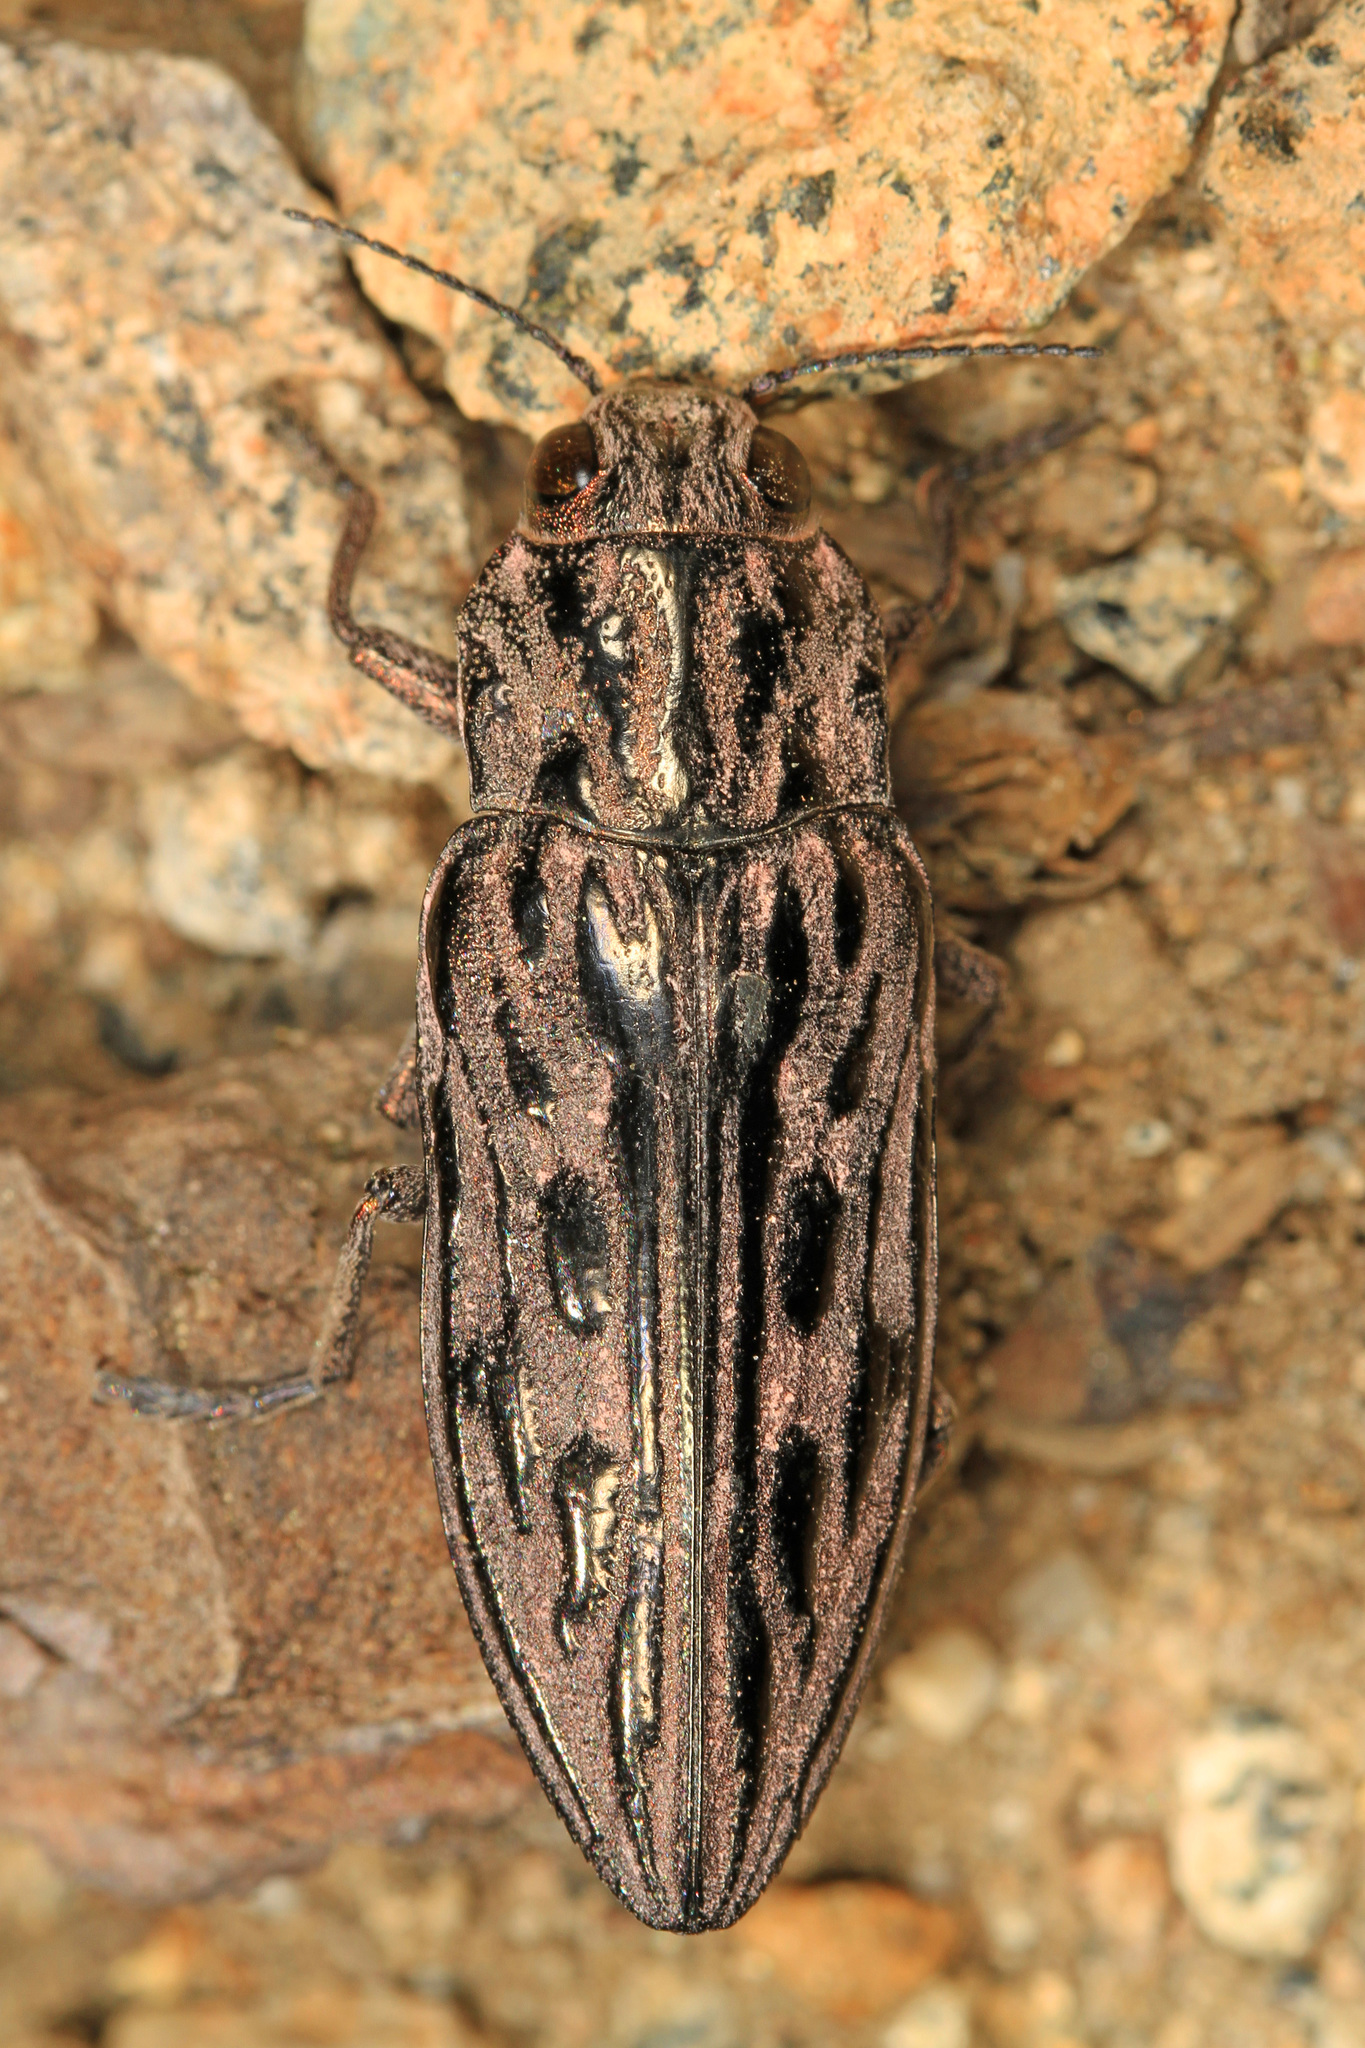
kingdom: Animalia
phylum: Arthropoda
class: Insecta
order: Coleoptera
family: Buprestidae
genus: Chalcophora
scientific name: Chalcophora angulicollis
